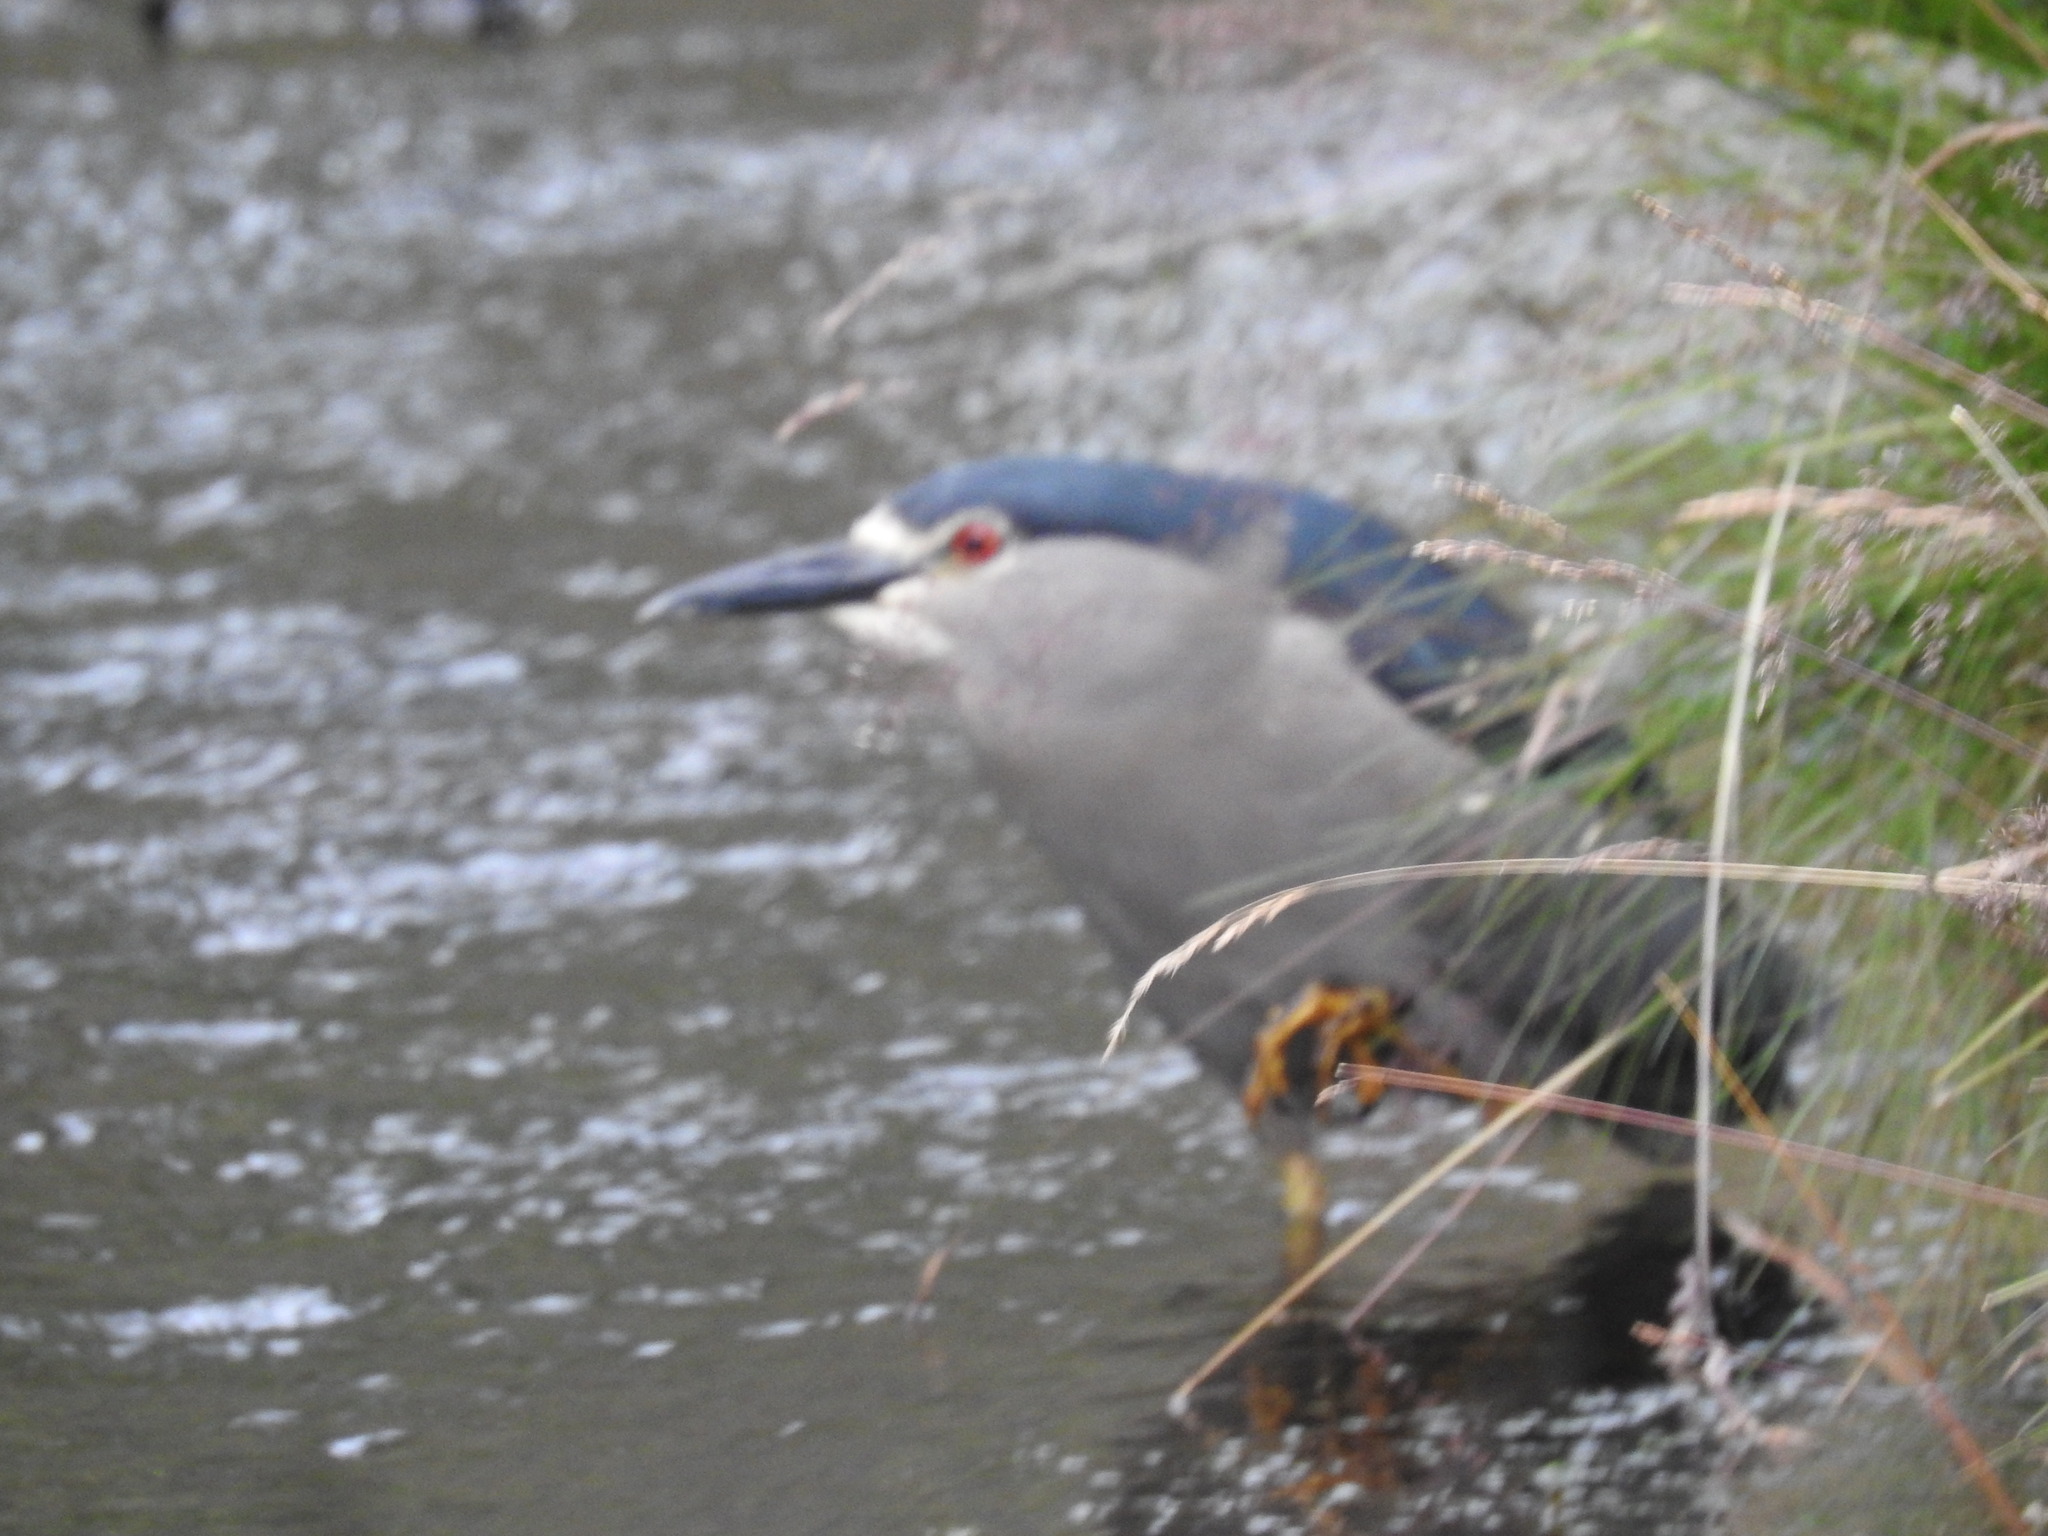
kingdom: Animalia
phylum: Chordata
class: Aves
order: Pelecaniformes
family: Ardeidae
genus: Nycticorax
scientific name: Nycticorax nycticorax
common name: Black-crowned night heron
